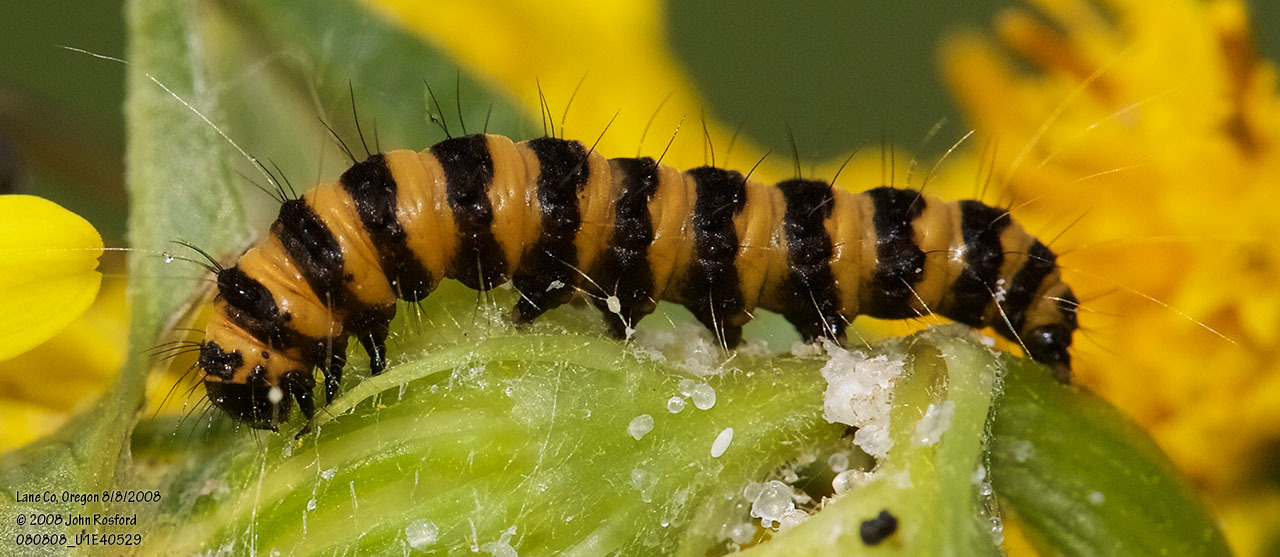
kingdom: Animalia
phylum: Arthropoda
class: Insecta
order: Lepidoptera
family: Erebidae
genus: Tyria
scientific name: Tyria jacobaeae
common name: Cinnabar
